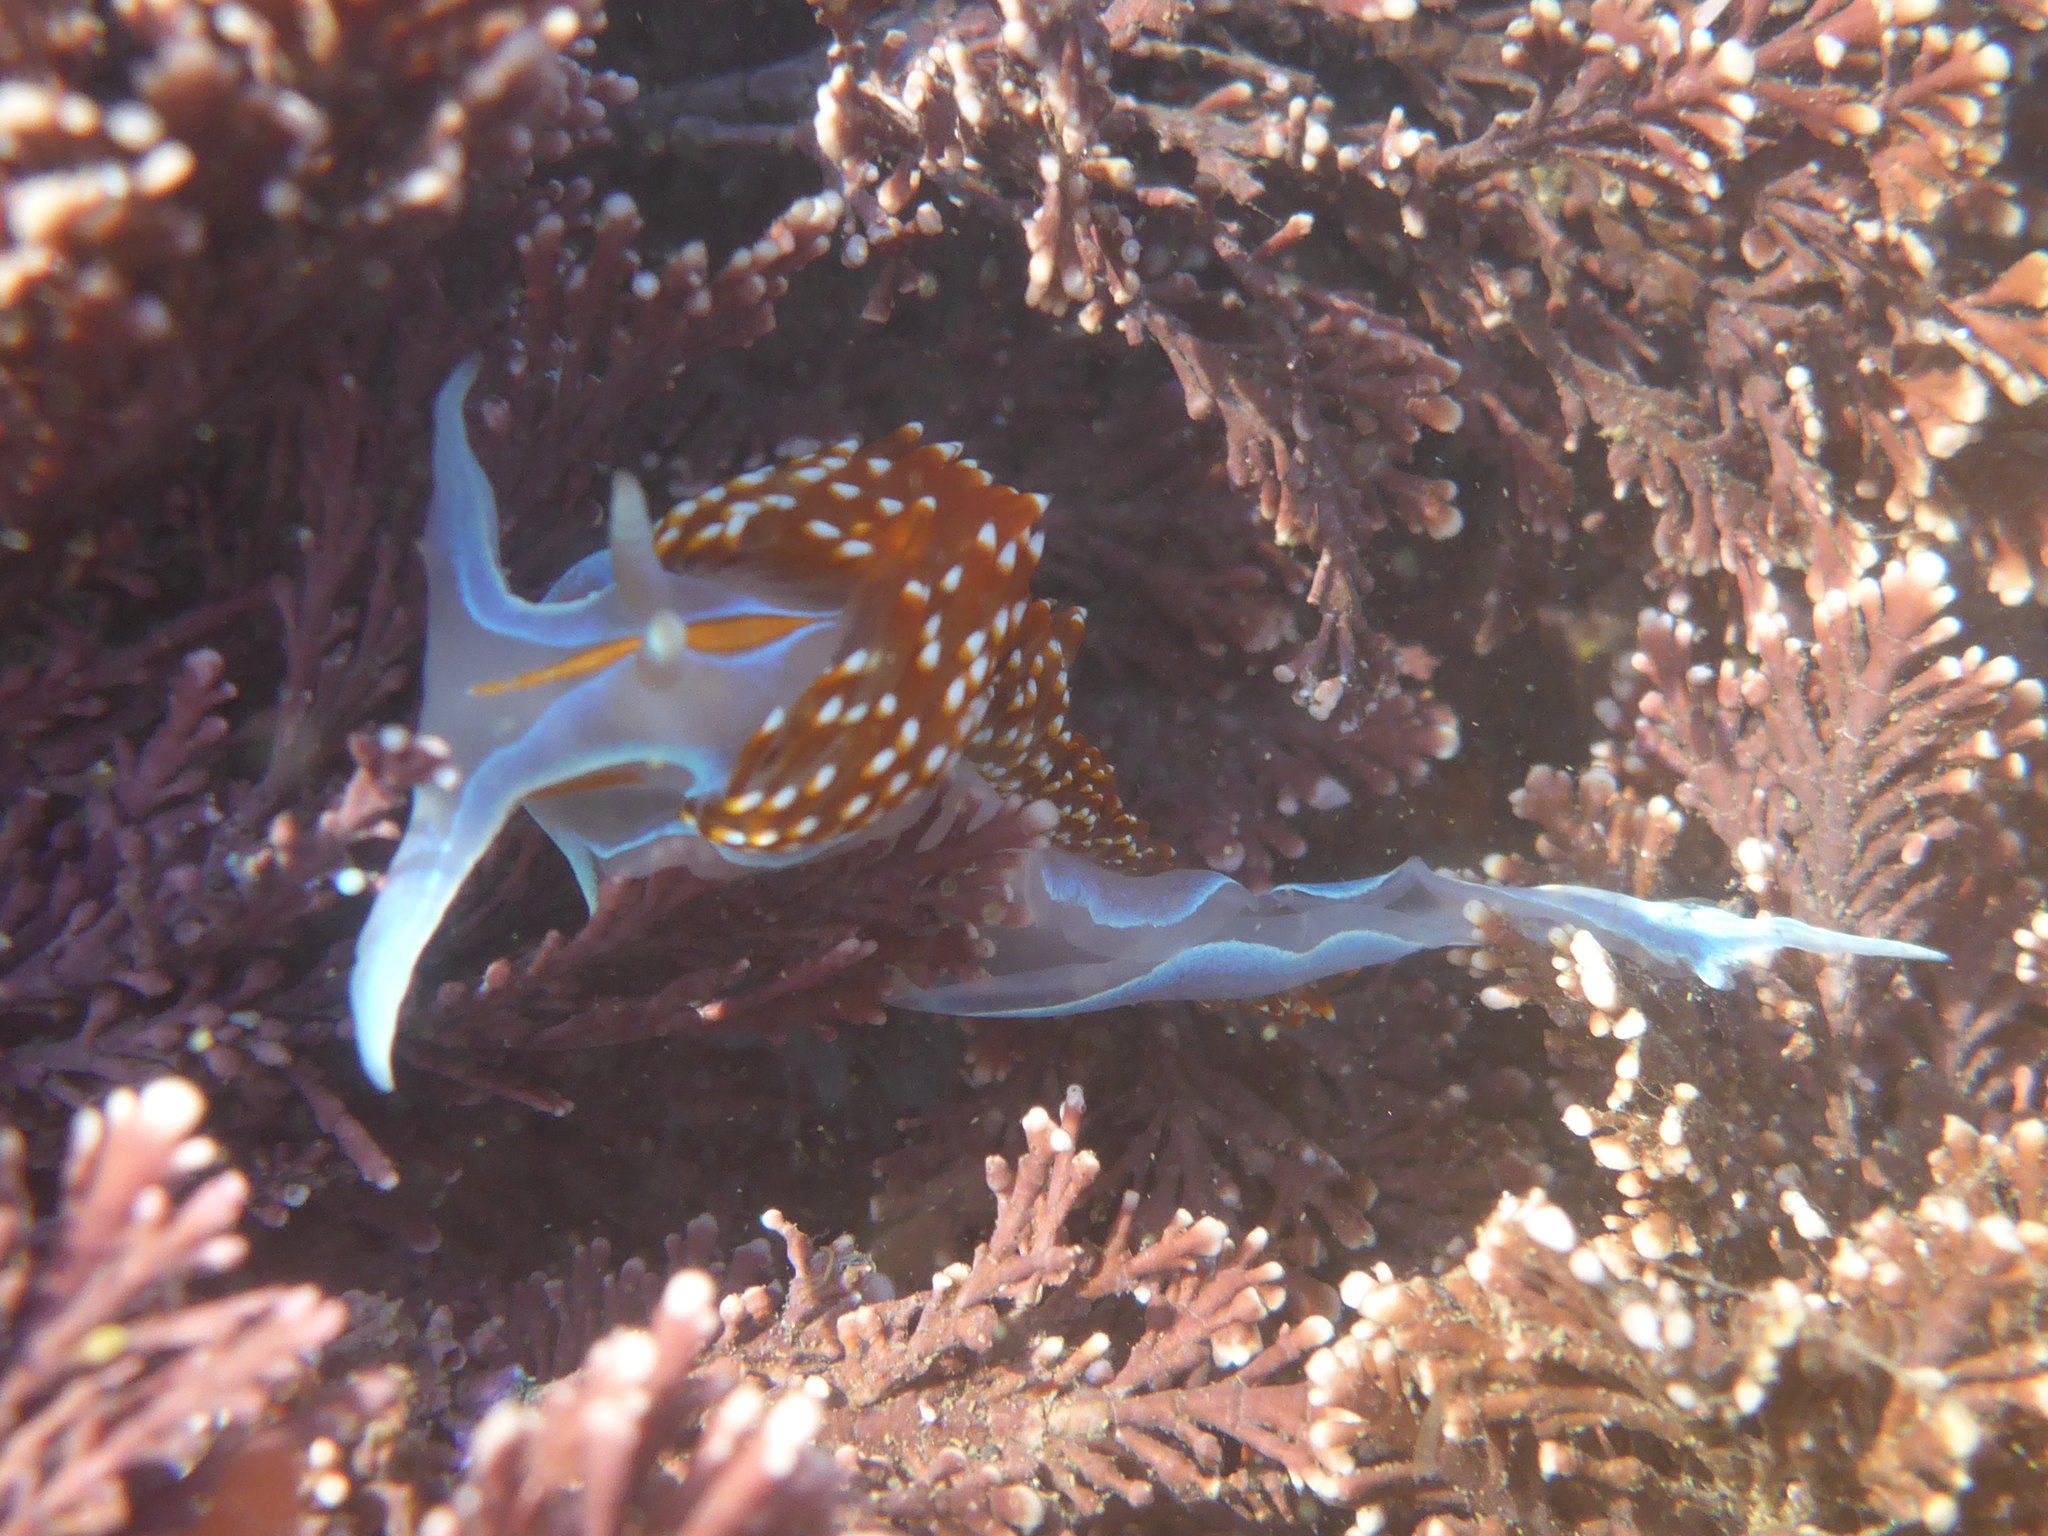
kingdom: Animalia
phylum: Mollusca
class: Gastropoda
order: Nudibranchia
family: Myrrhinidae
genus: Hermissenda
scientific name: Hermissenda opalescens
